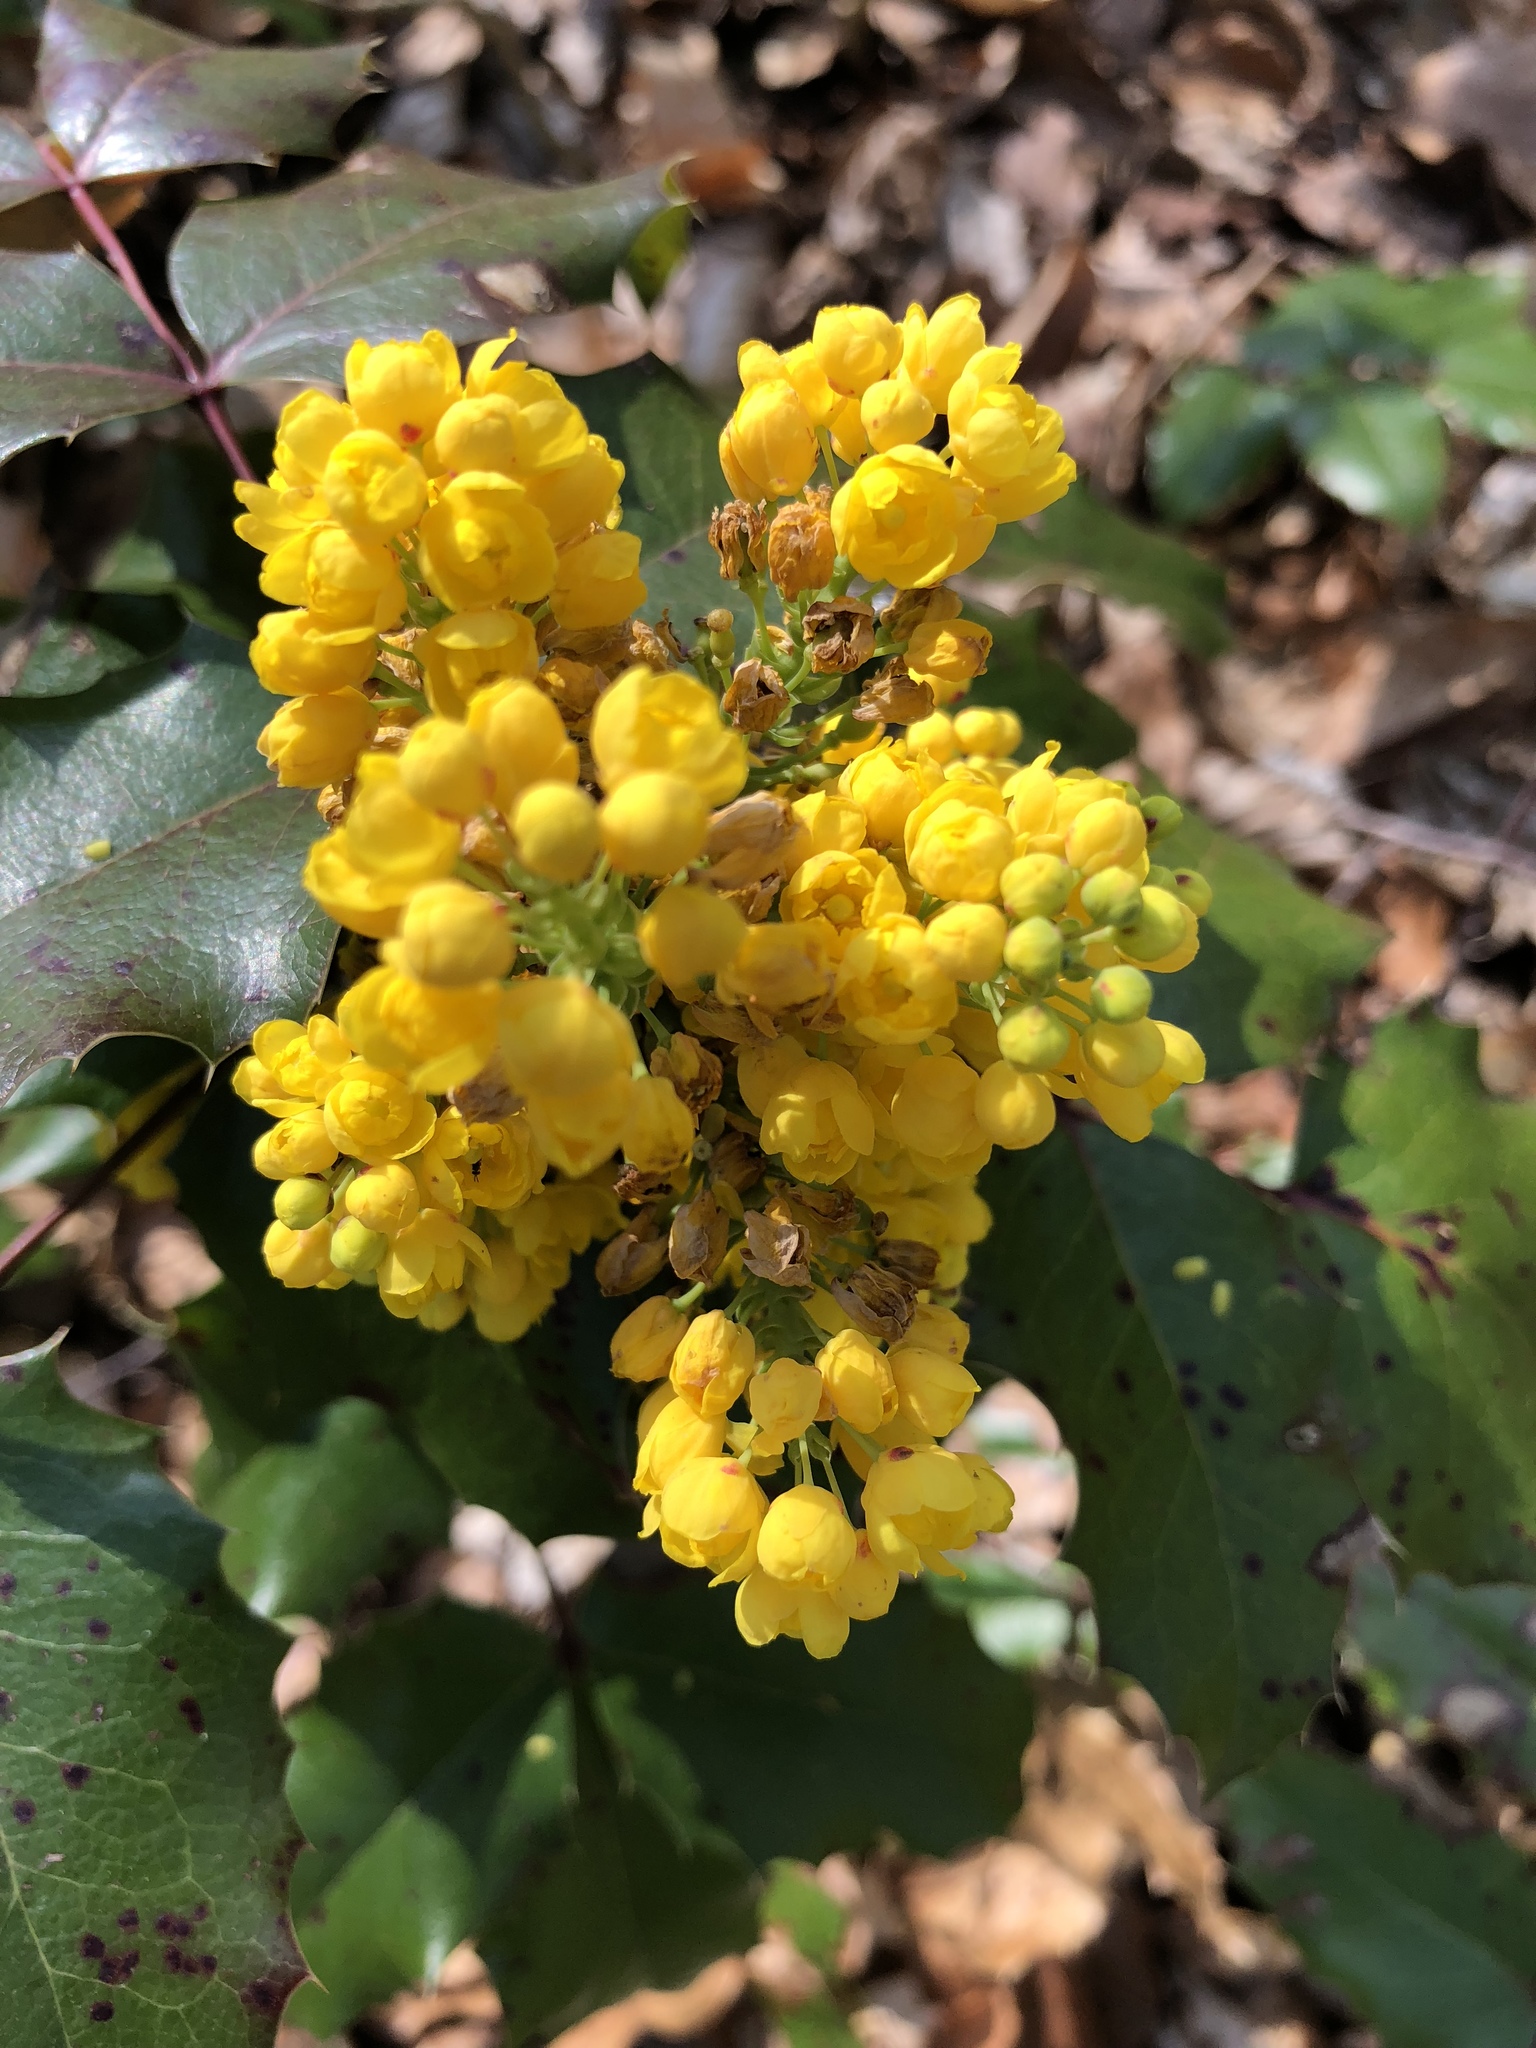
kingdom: Plantae
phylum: Tracheophyta
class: Magnoliopsida
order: Ranunculales
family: Berberidaceae
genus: Mahonia
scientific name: Mahonia aquifolium
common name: Oregon-grape
